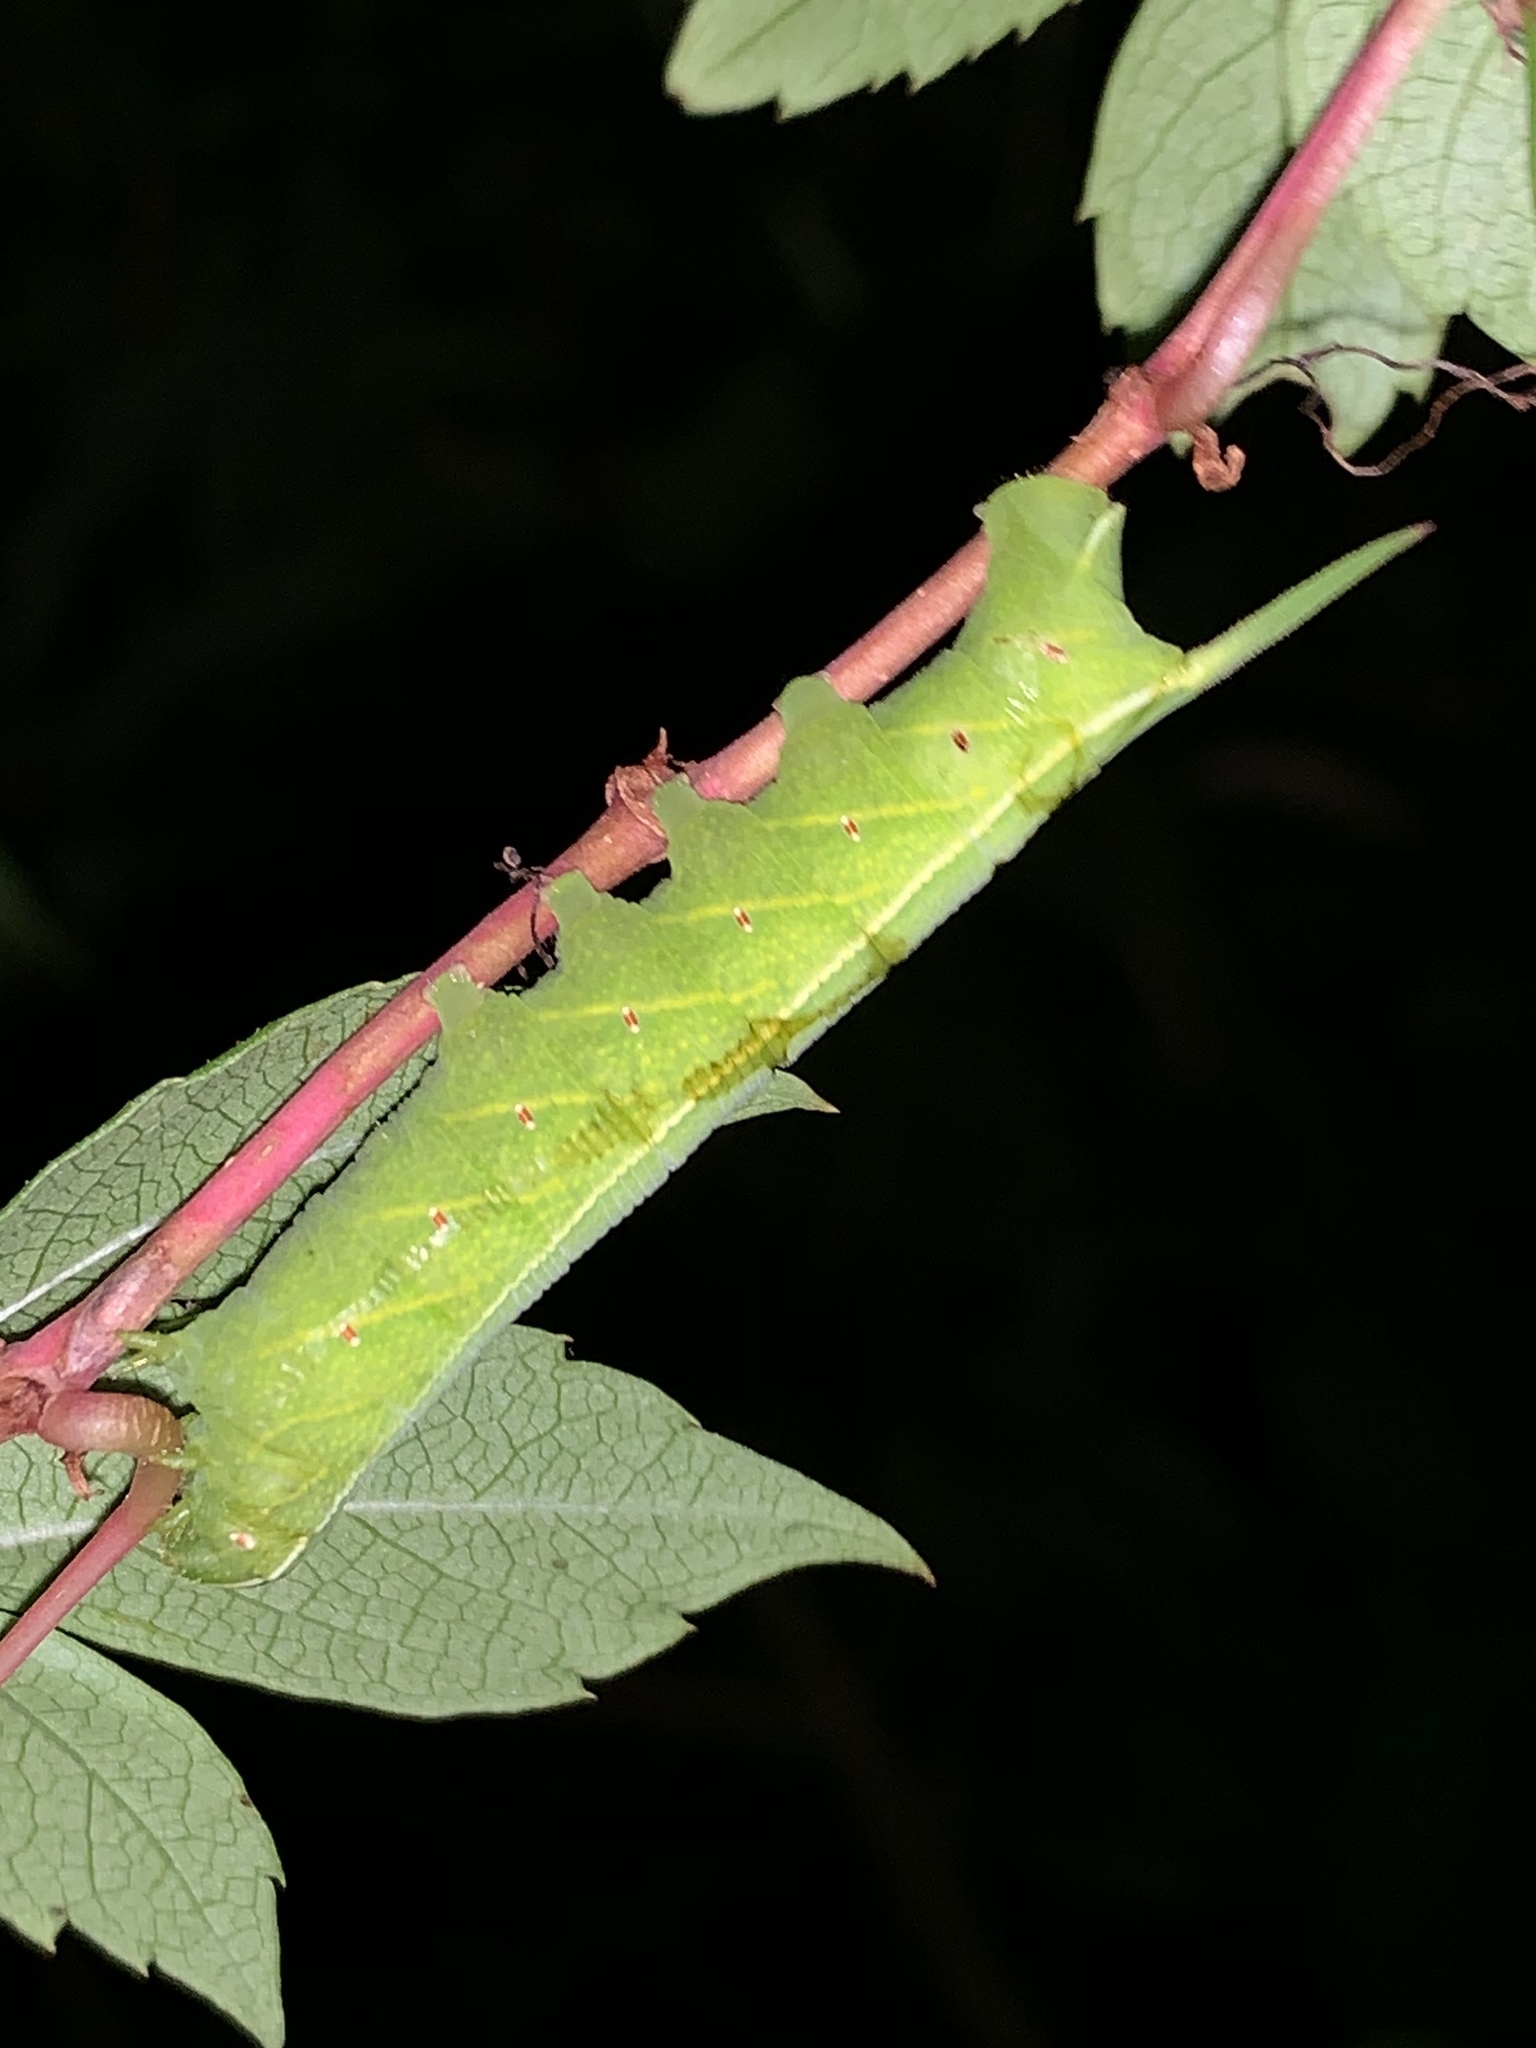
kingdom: Animalia
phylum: Arthropoda
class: Insecta
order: Lepidoptera
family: Sphingidae
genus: Enyo
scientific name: Enyo lugubris
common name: Mournful sphinx
